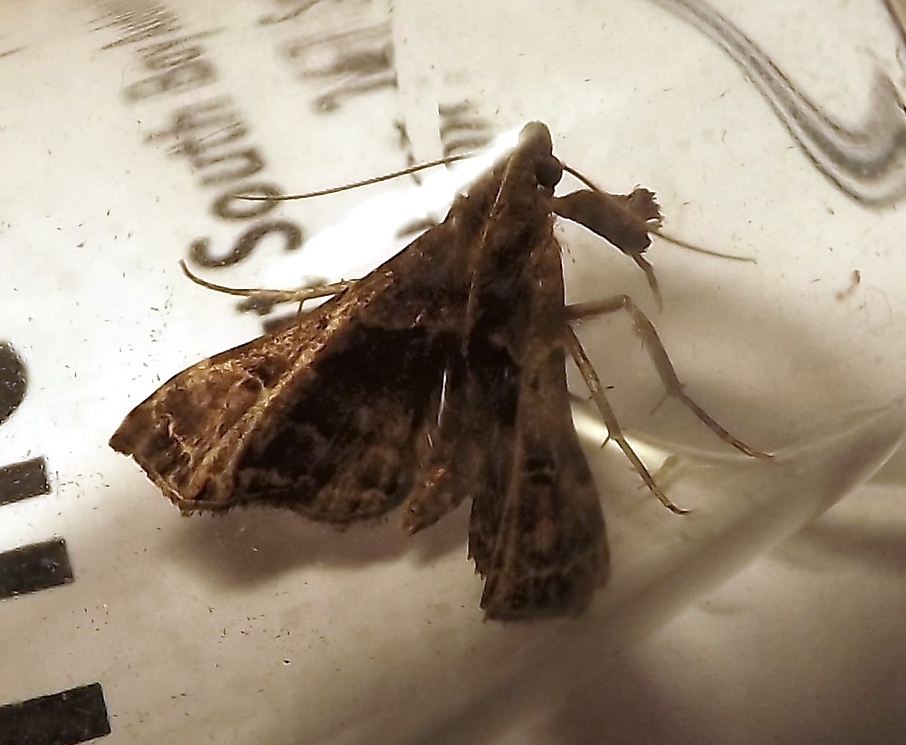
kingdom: Animalia
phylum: Arthropoda
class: Insecta
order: Lepidoptera
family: Erebidae
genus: Palthis
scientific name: Palthis asopialis
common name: Faint-spotted palthis moth
